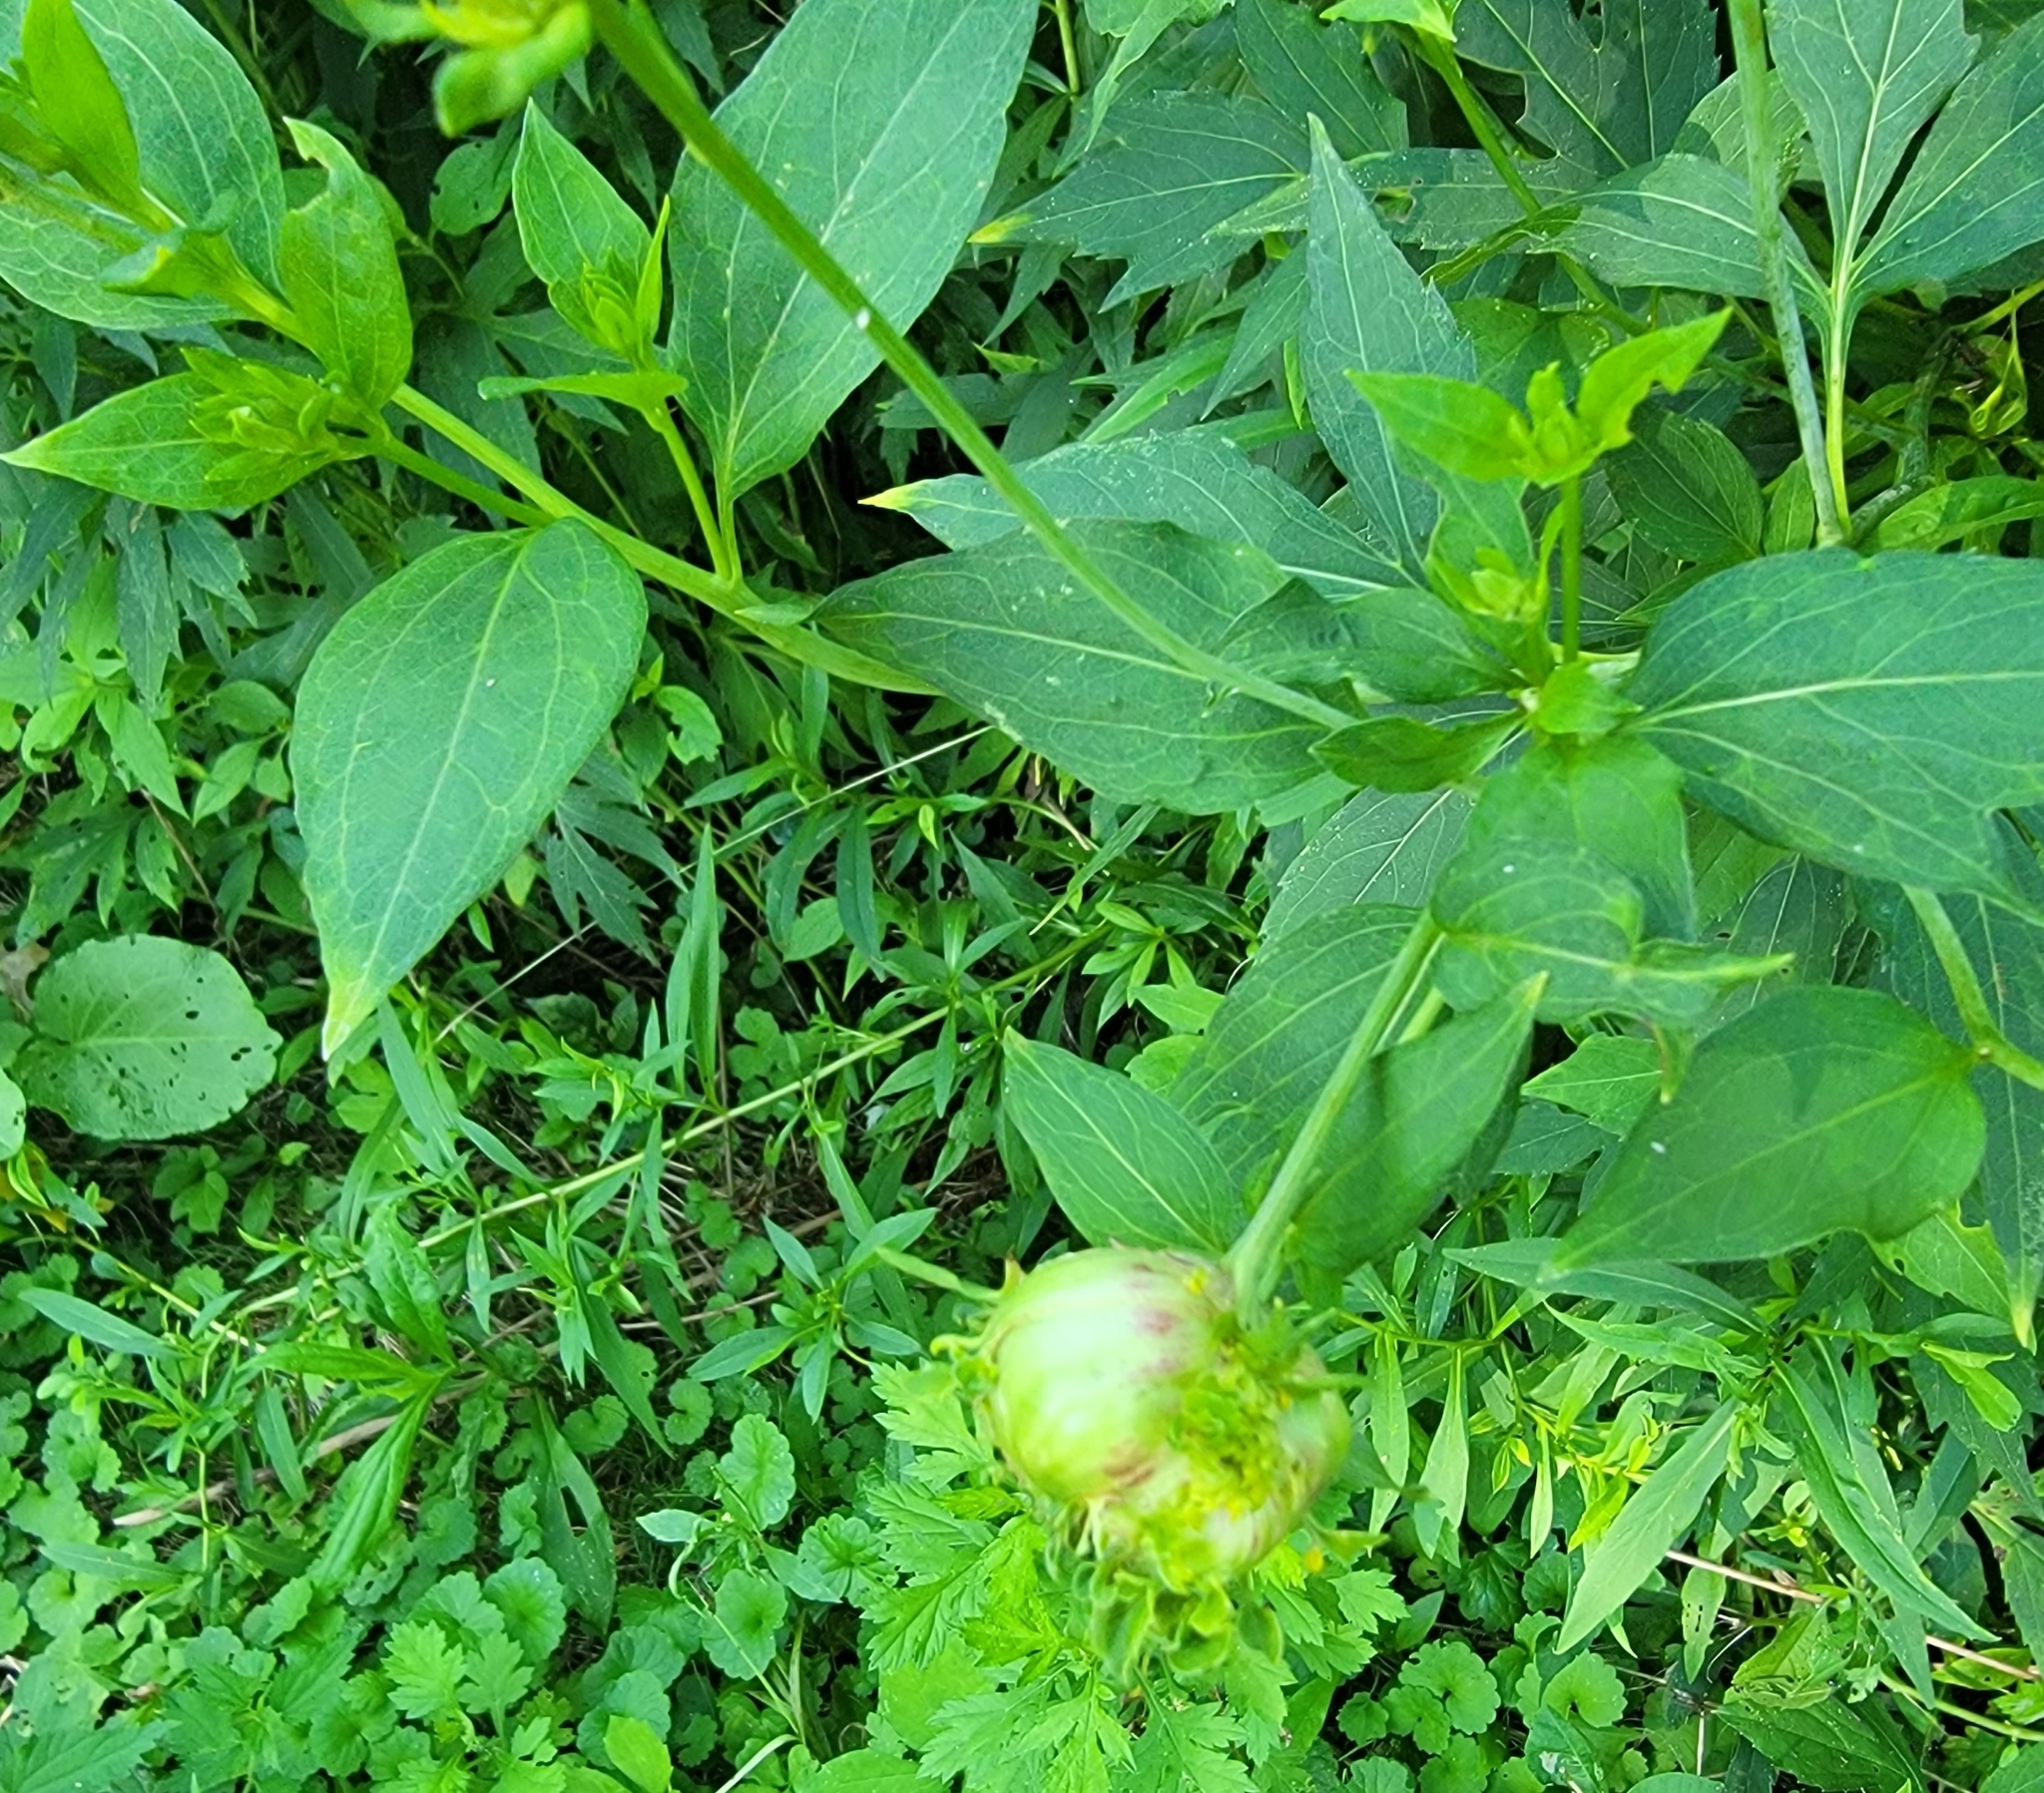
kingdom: Animalia
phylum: Arthropoda
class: Insecta
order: Diptera
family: Cecidomyiidae
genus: Asphondylia
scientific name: Asphondylia rudbeckiaeconspicua
